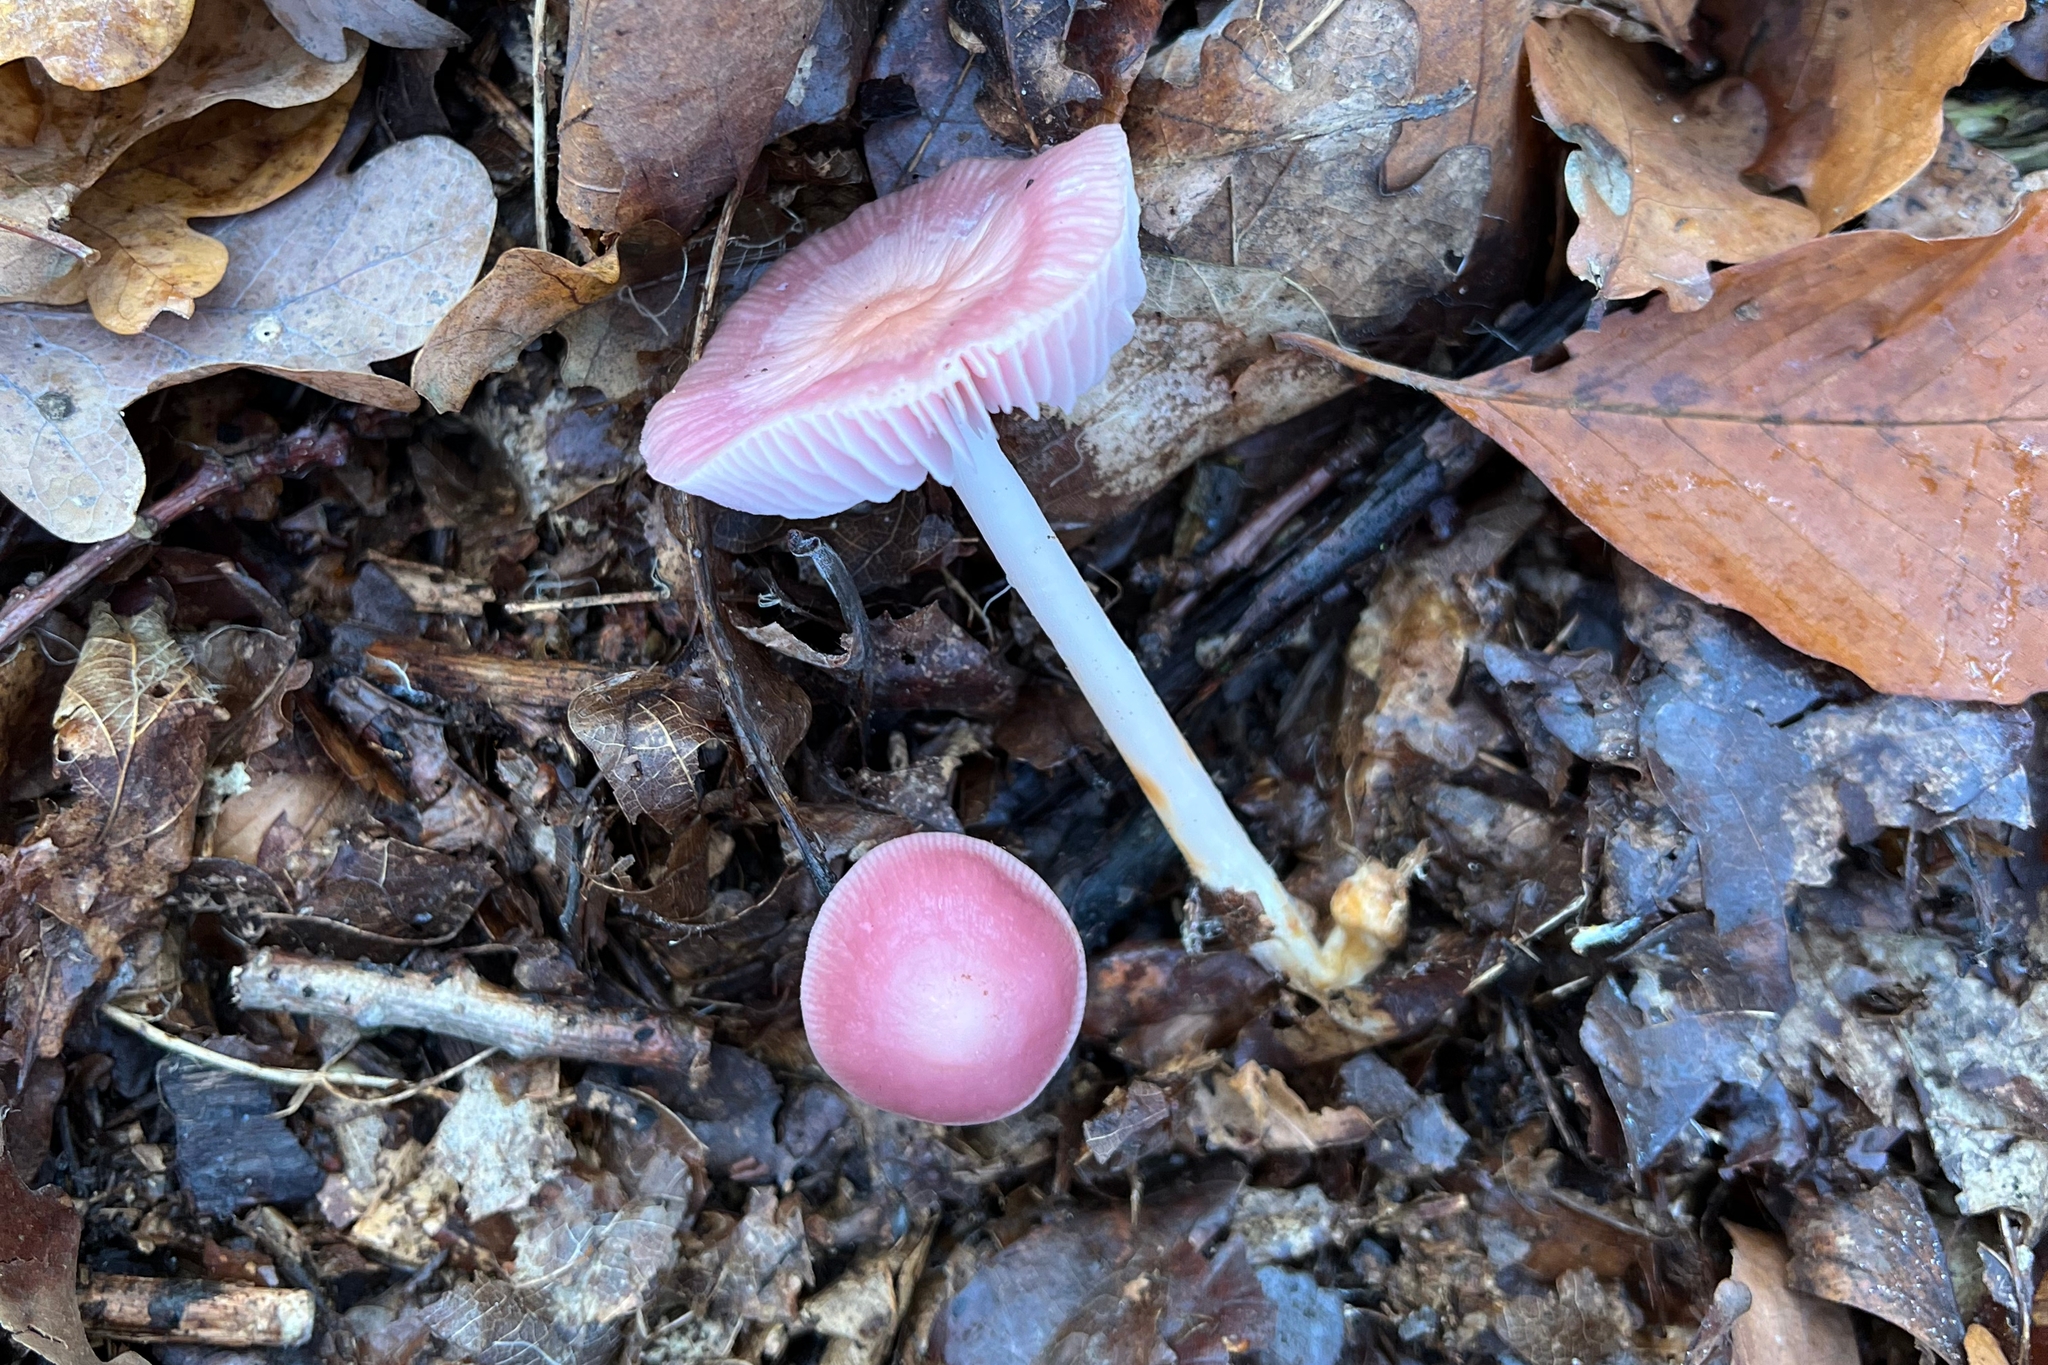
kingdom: Fungi
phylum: Basidiomycota
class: Agaricomycetes
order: Agaricales
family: Mycenaceae
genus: Mycena
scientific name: Mycena rosea
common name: Rosy bonnet
